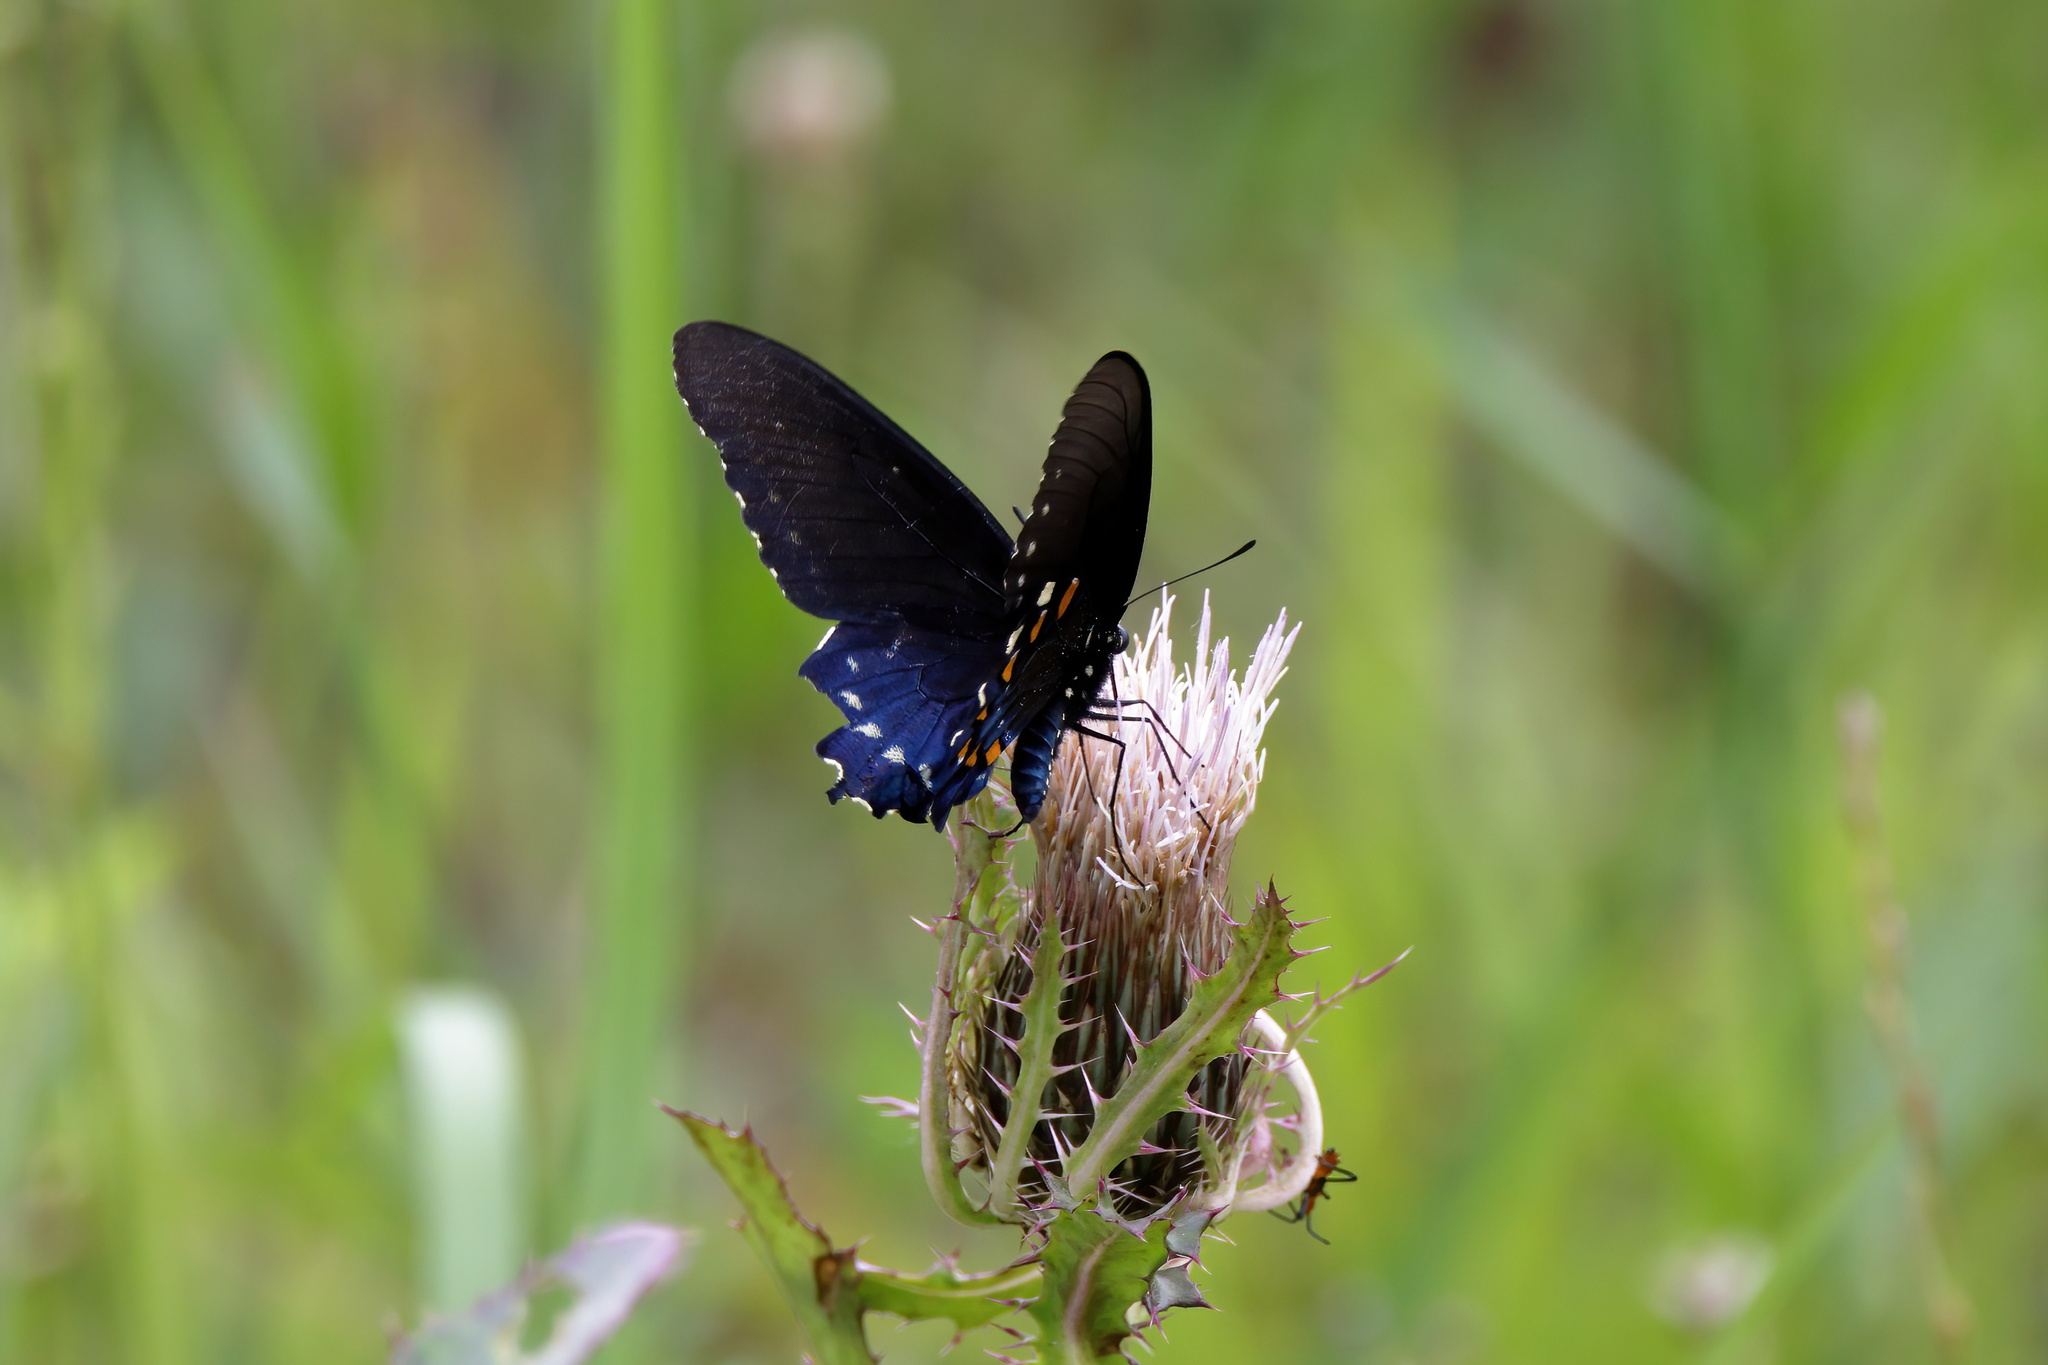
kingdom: Animalia
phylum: Arthropoda
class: Insecta
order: Lepidoptera
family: Papilionidae
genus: Battus
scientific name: Battus philenor
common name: Pipevine swallowtail
